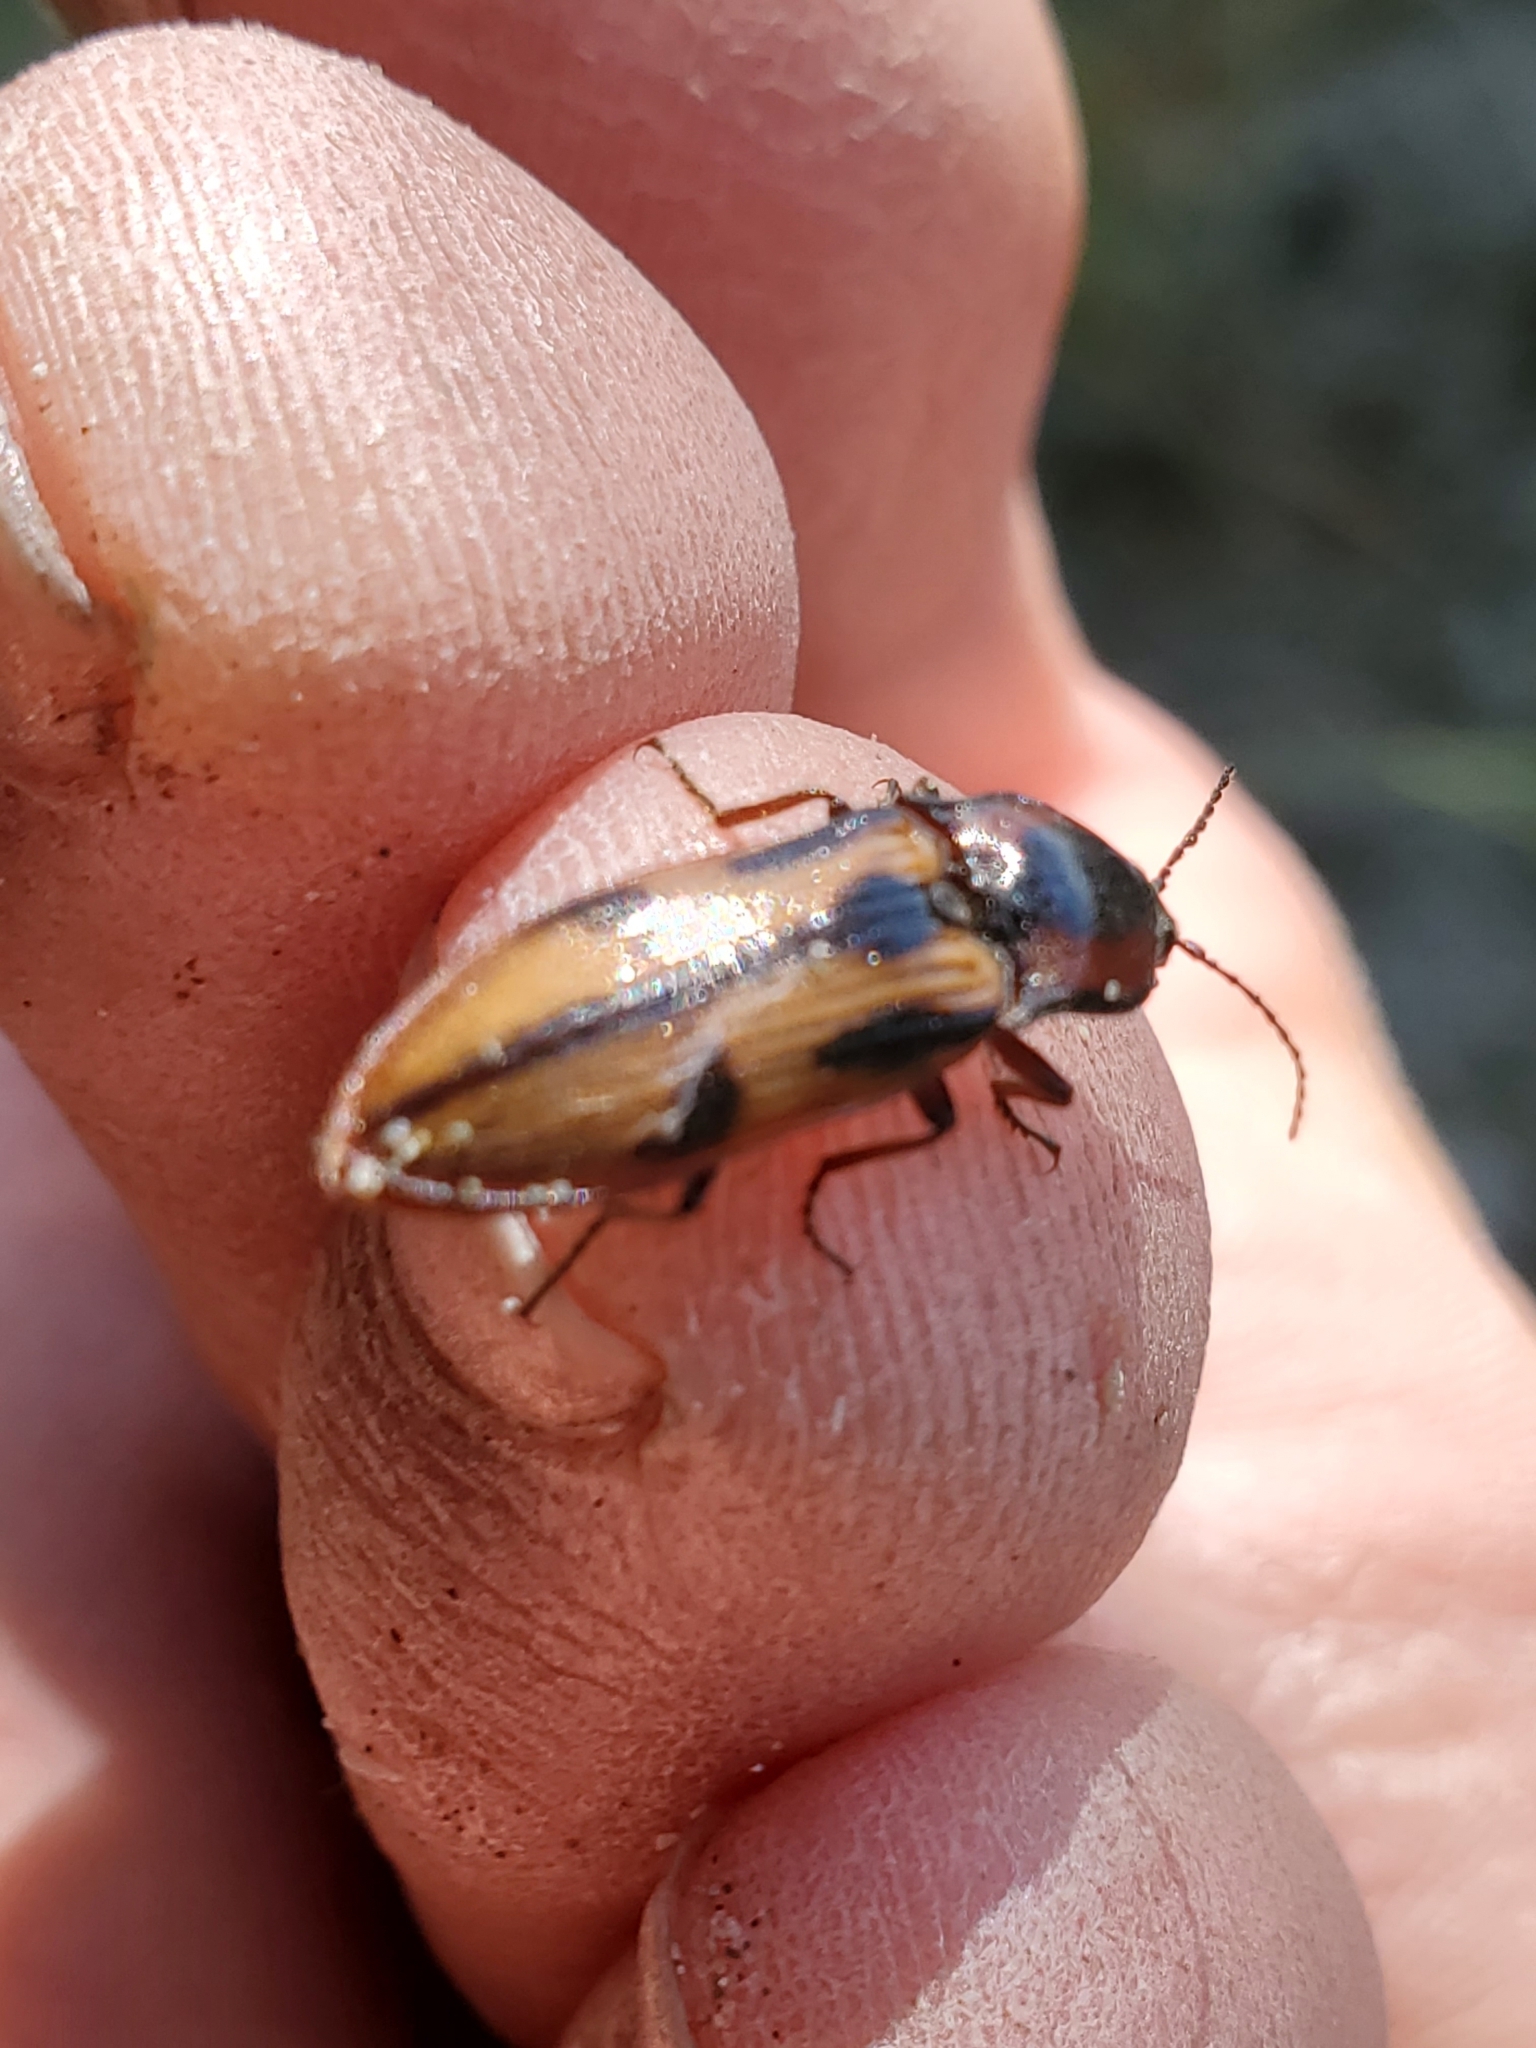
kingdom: Animalia
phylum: Arthropoda
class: Insecta
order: Coleoptera
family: Elateridae
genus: Selatosomus
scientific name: Selatosomus festivus
